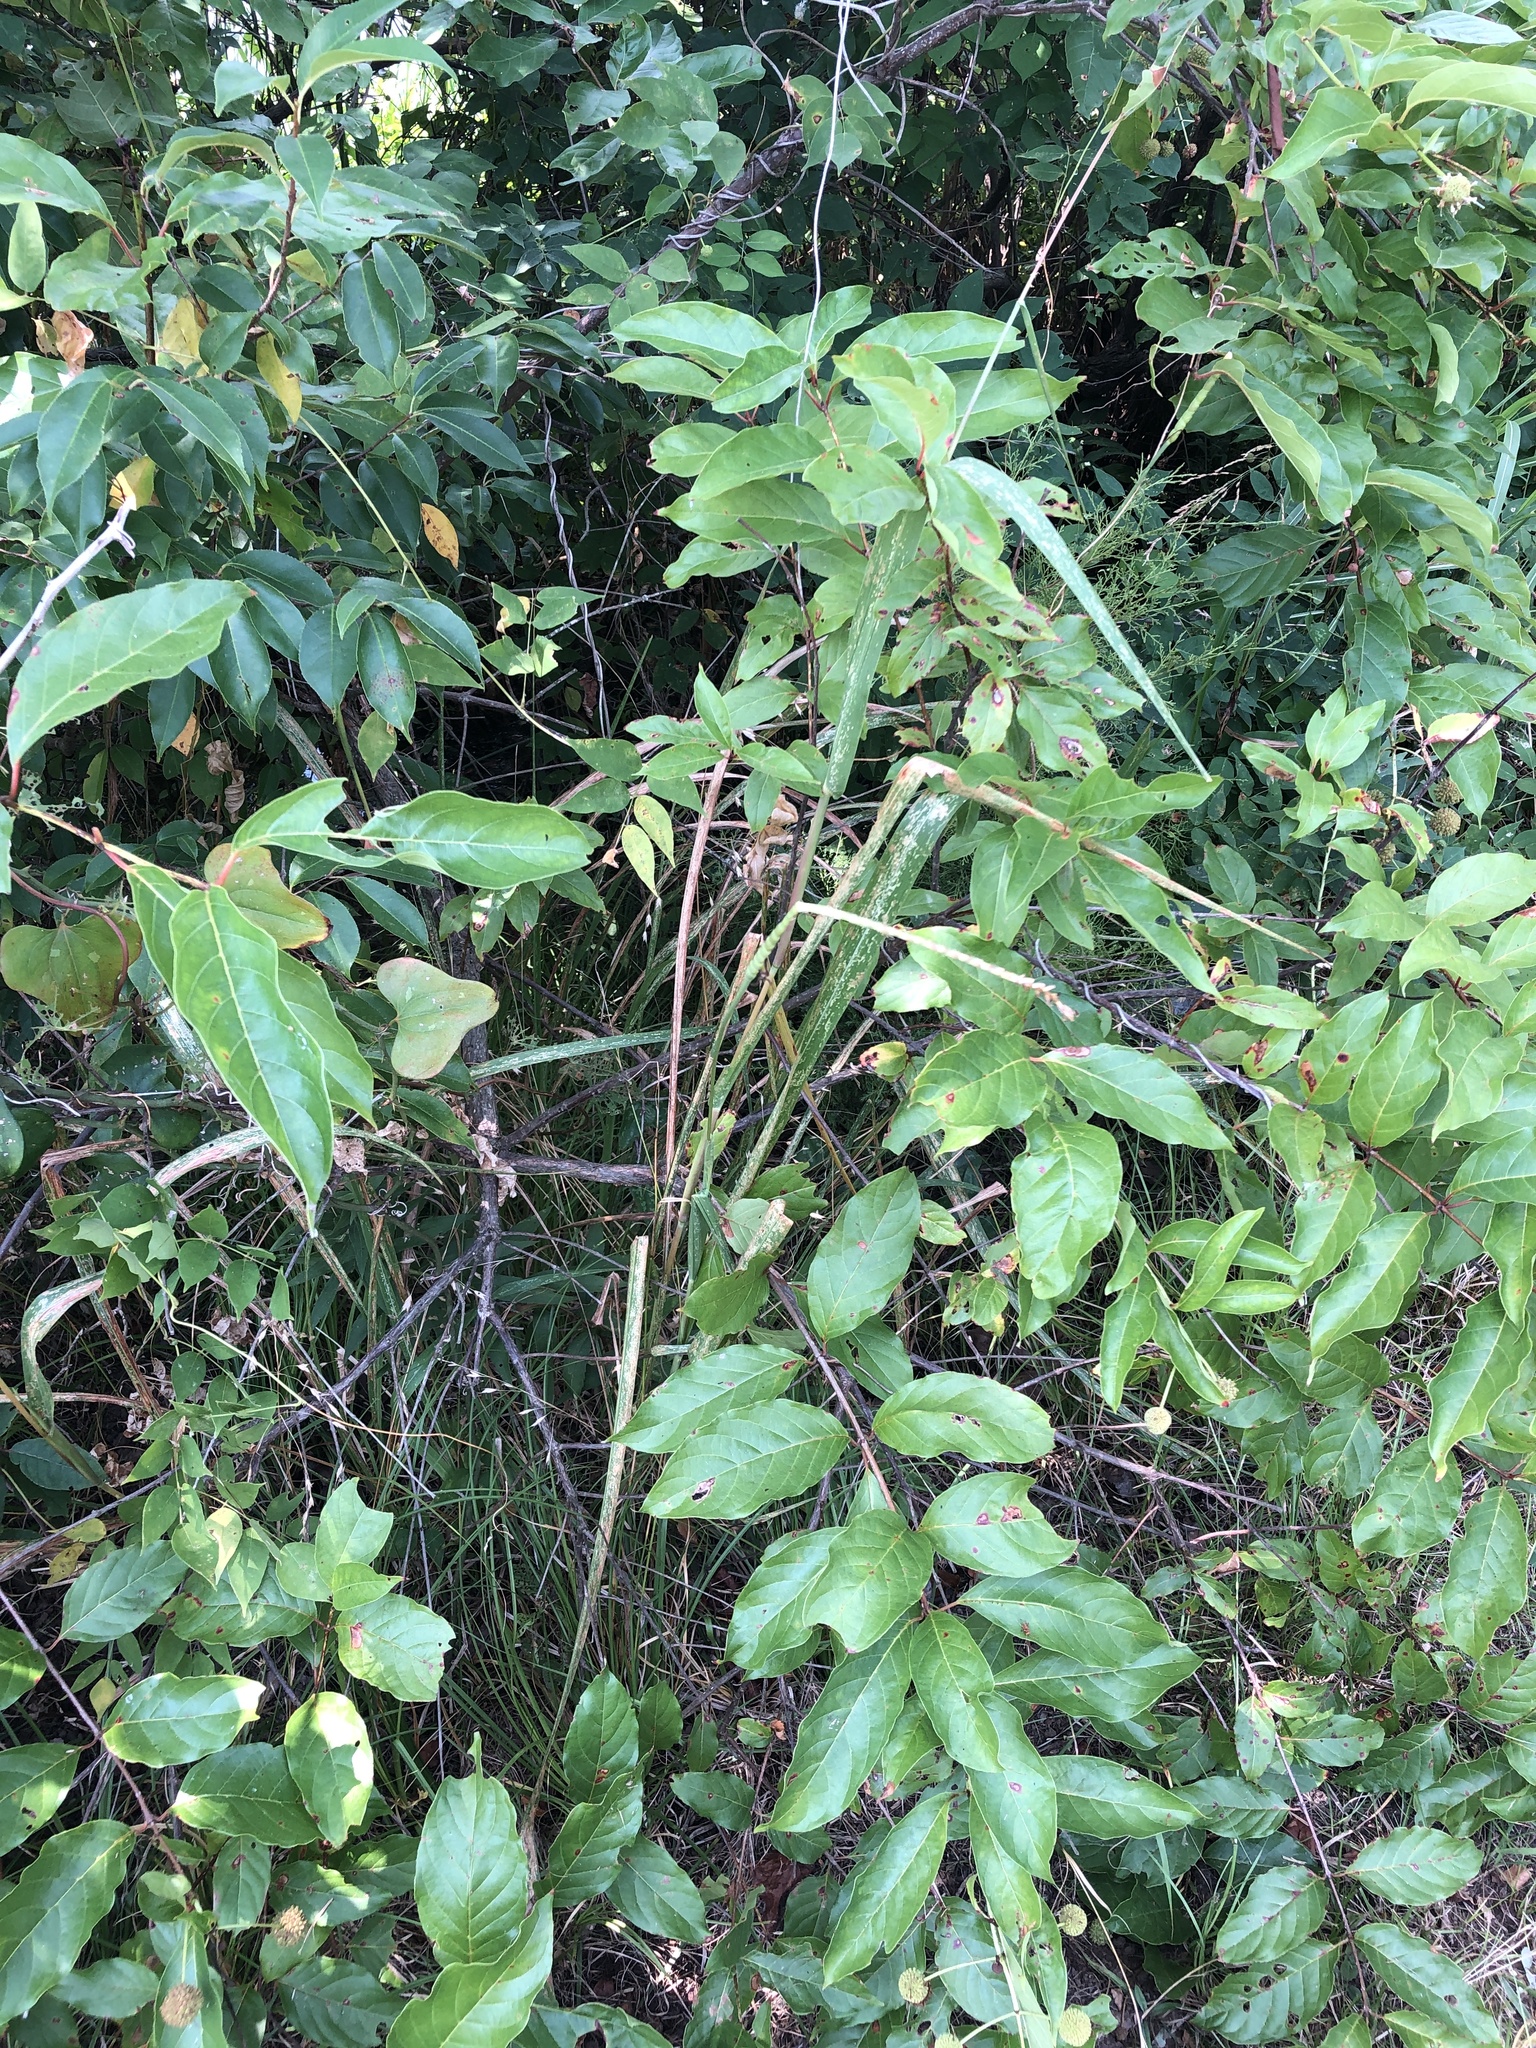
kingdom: Plantae
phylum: Tracheophyta
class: Liliopsida
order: Poales
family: Poaceae
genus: Tripsacum
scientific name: Tripsacum dactyloides
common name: Buffalo-grass
